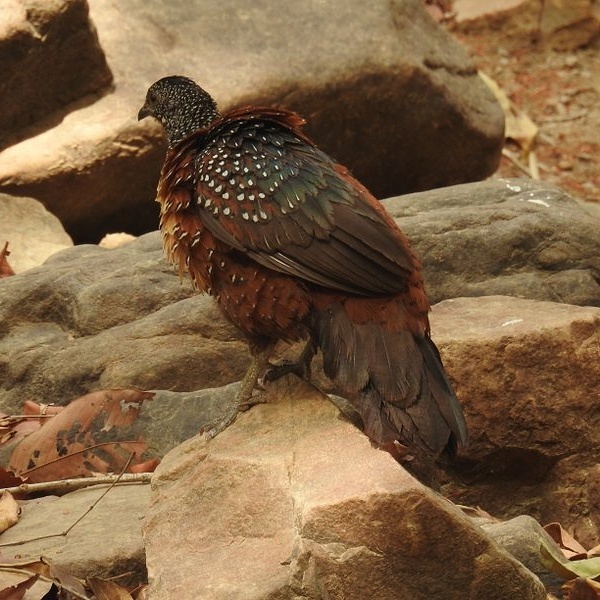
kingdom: Animalia
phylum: Chordata
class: Aves
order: Galliformes
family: Phasianidae
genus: Galloperdix
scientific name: Galloperdix lunulata
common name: Painted spurfowl
